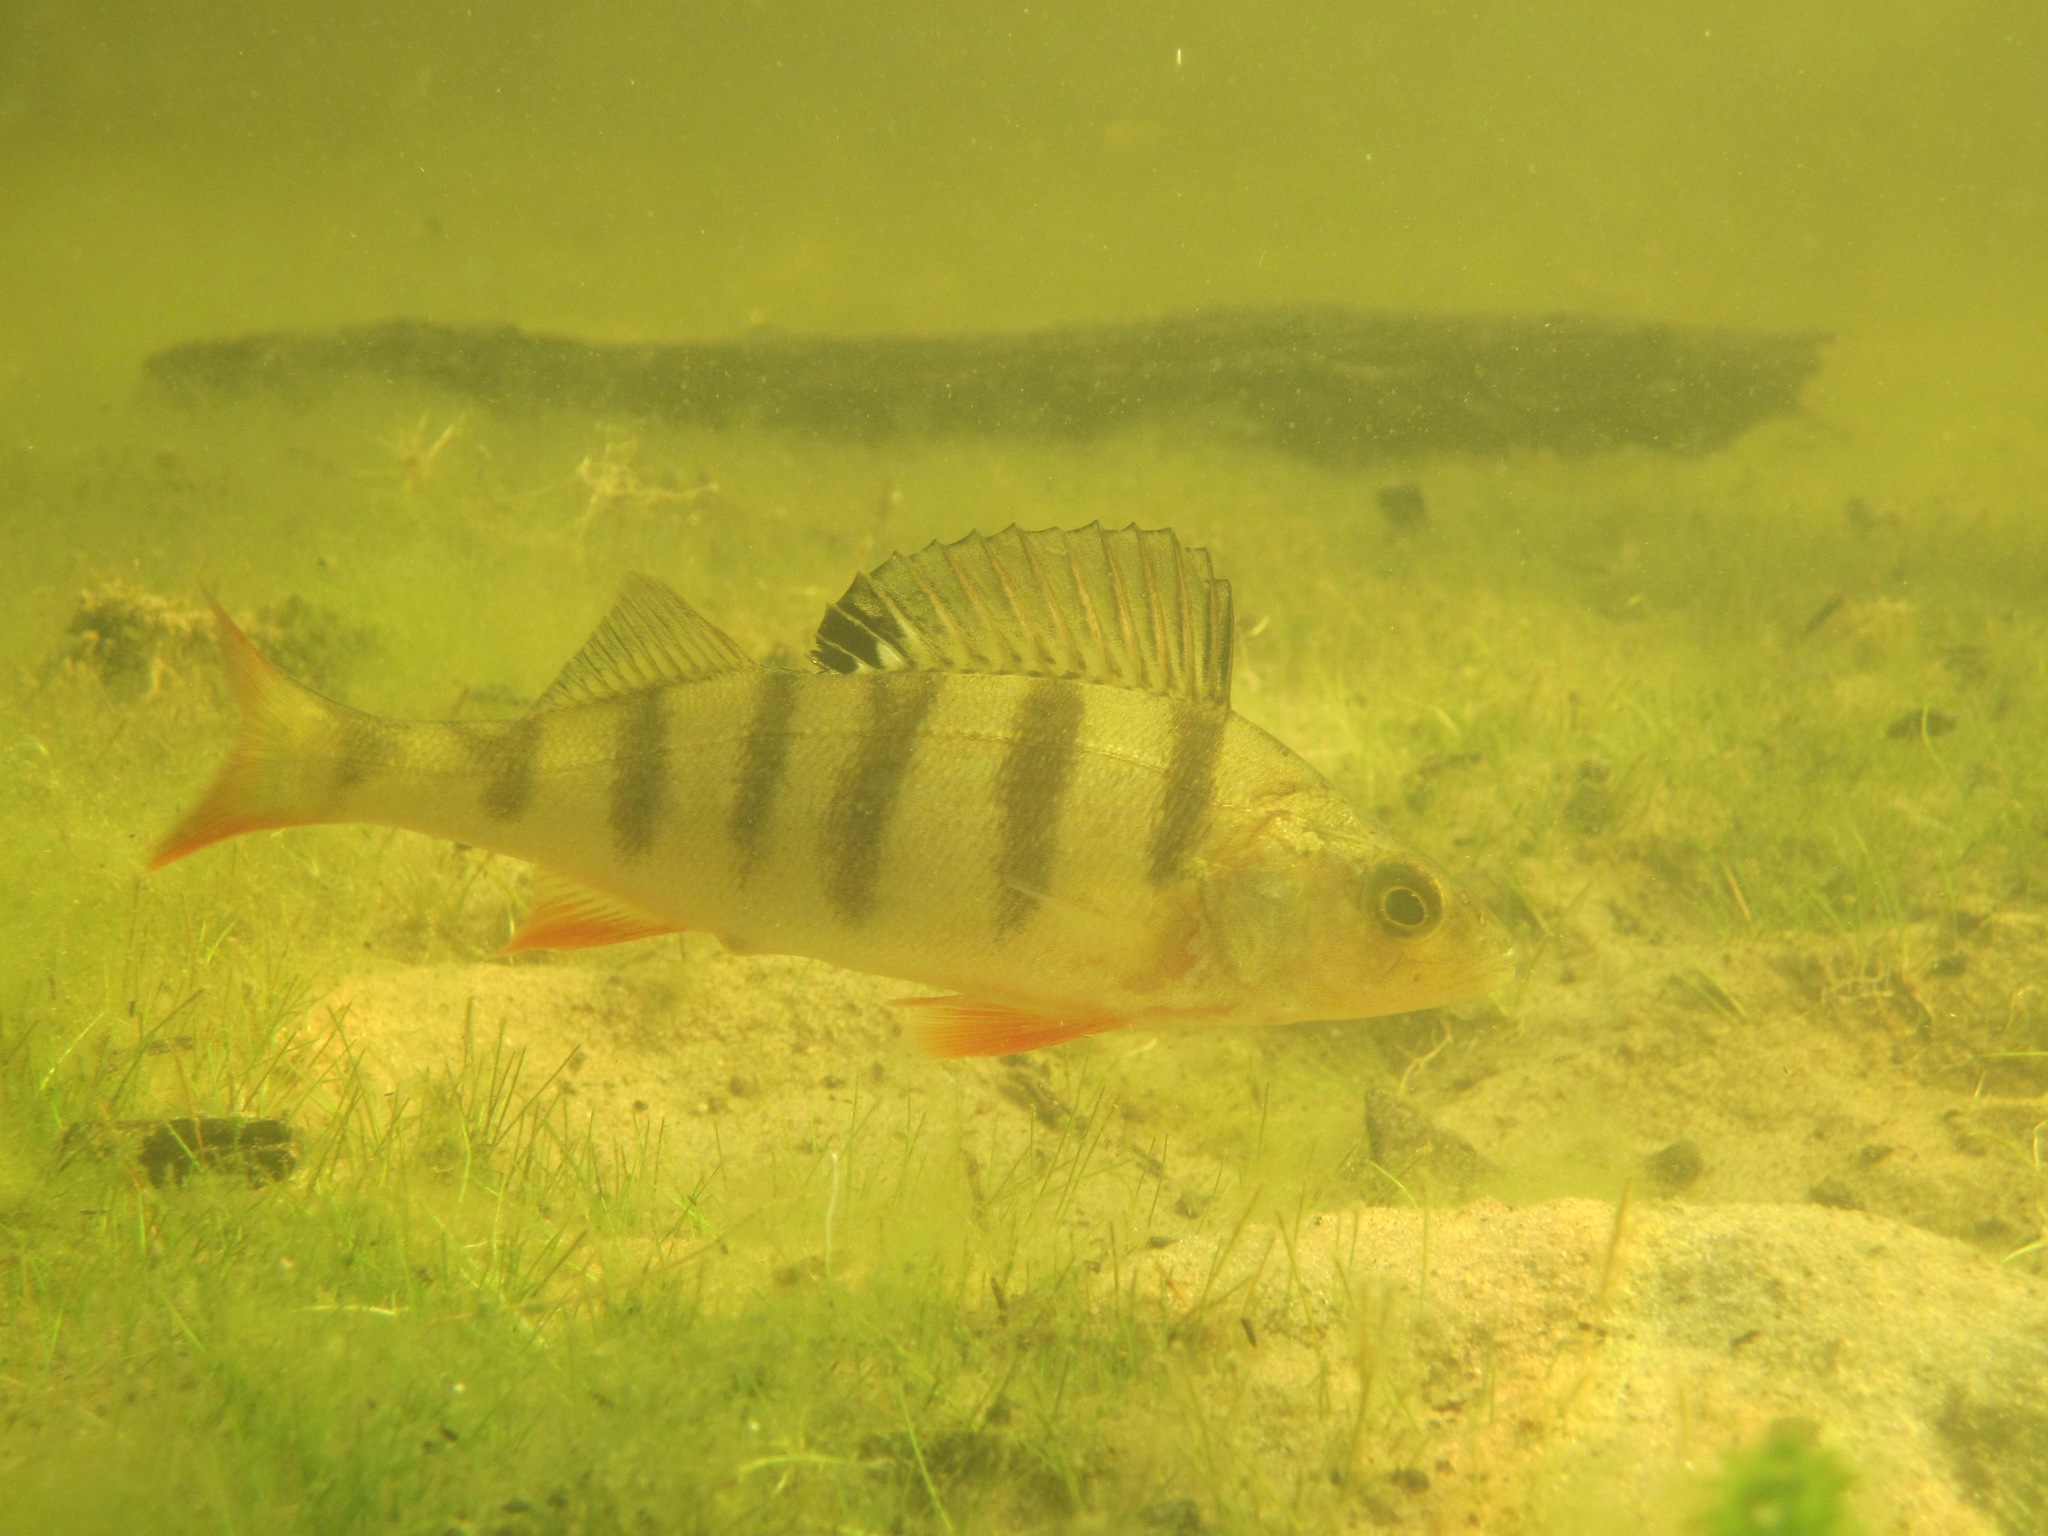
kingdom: Animalia
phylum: Chordata
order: Perciformes
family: Percidae
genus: Perca
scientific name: Perca fluviatilis
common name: Perch
